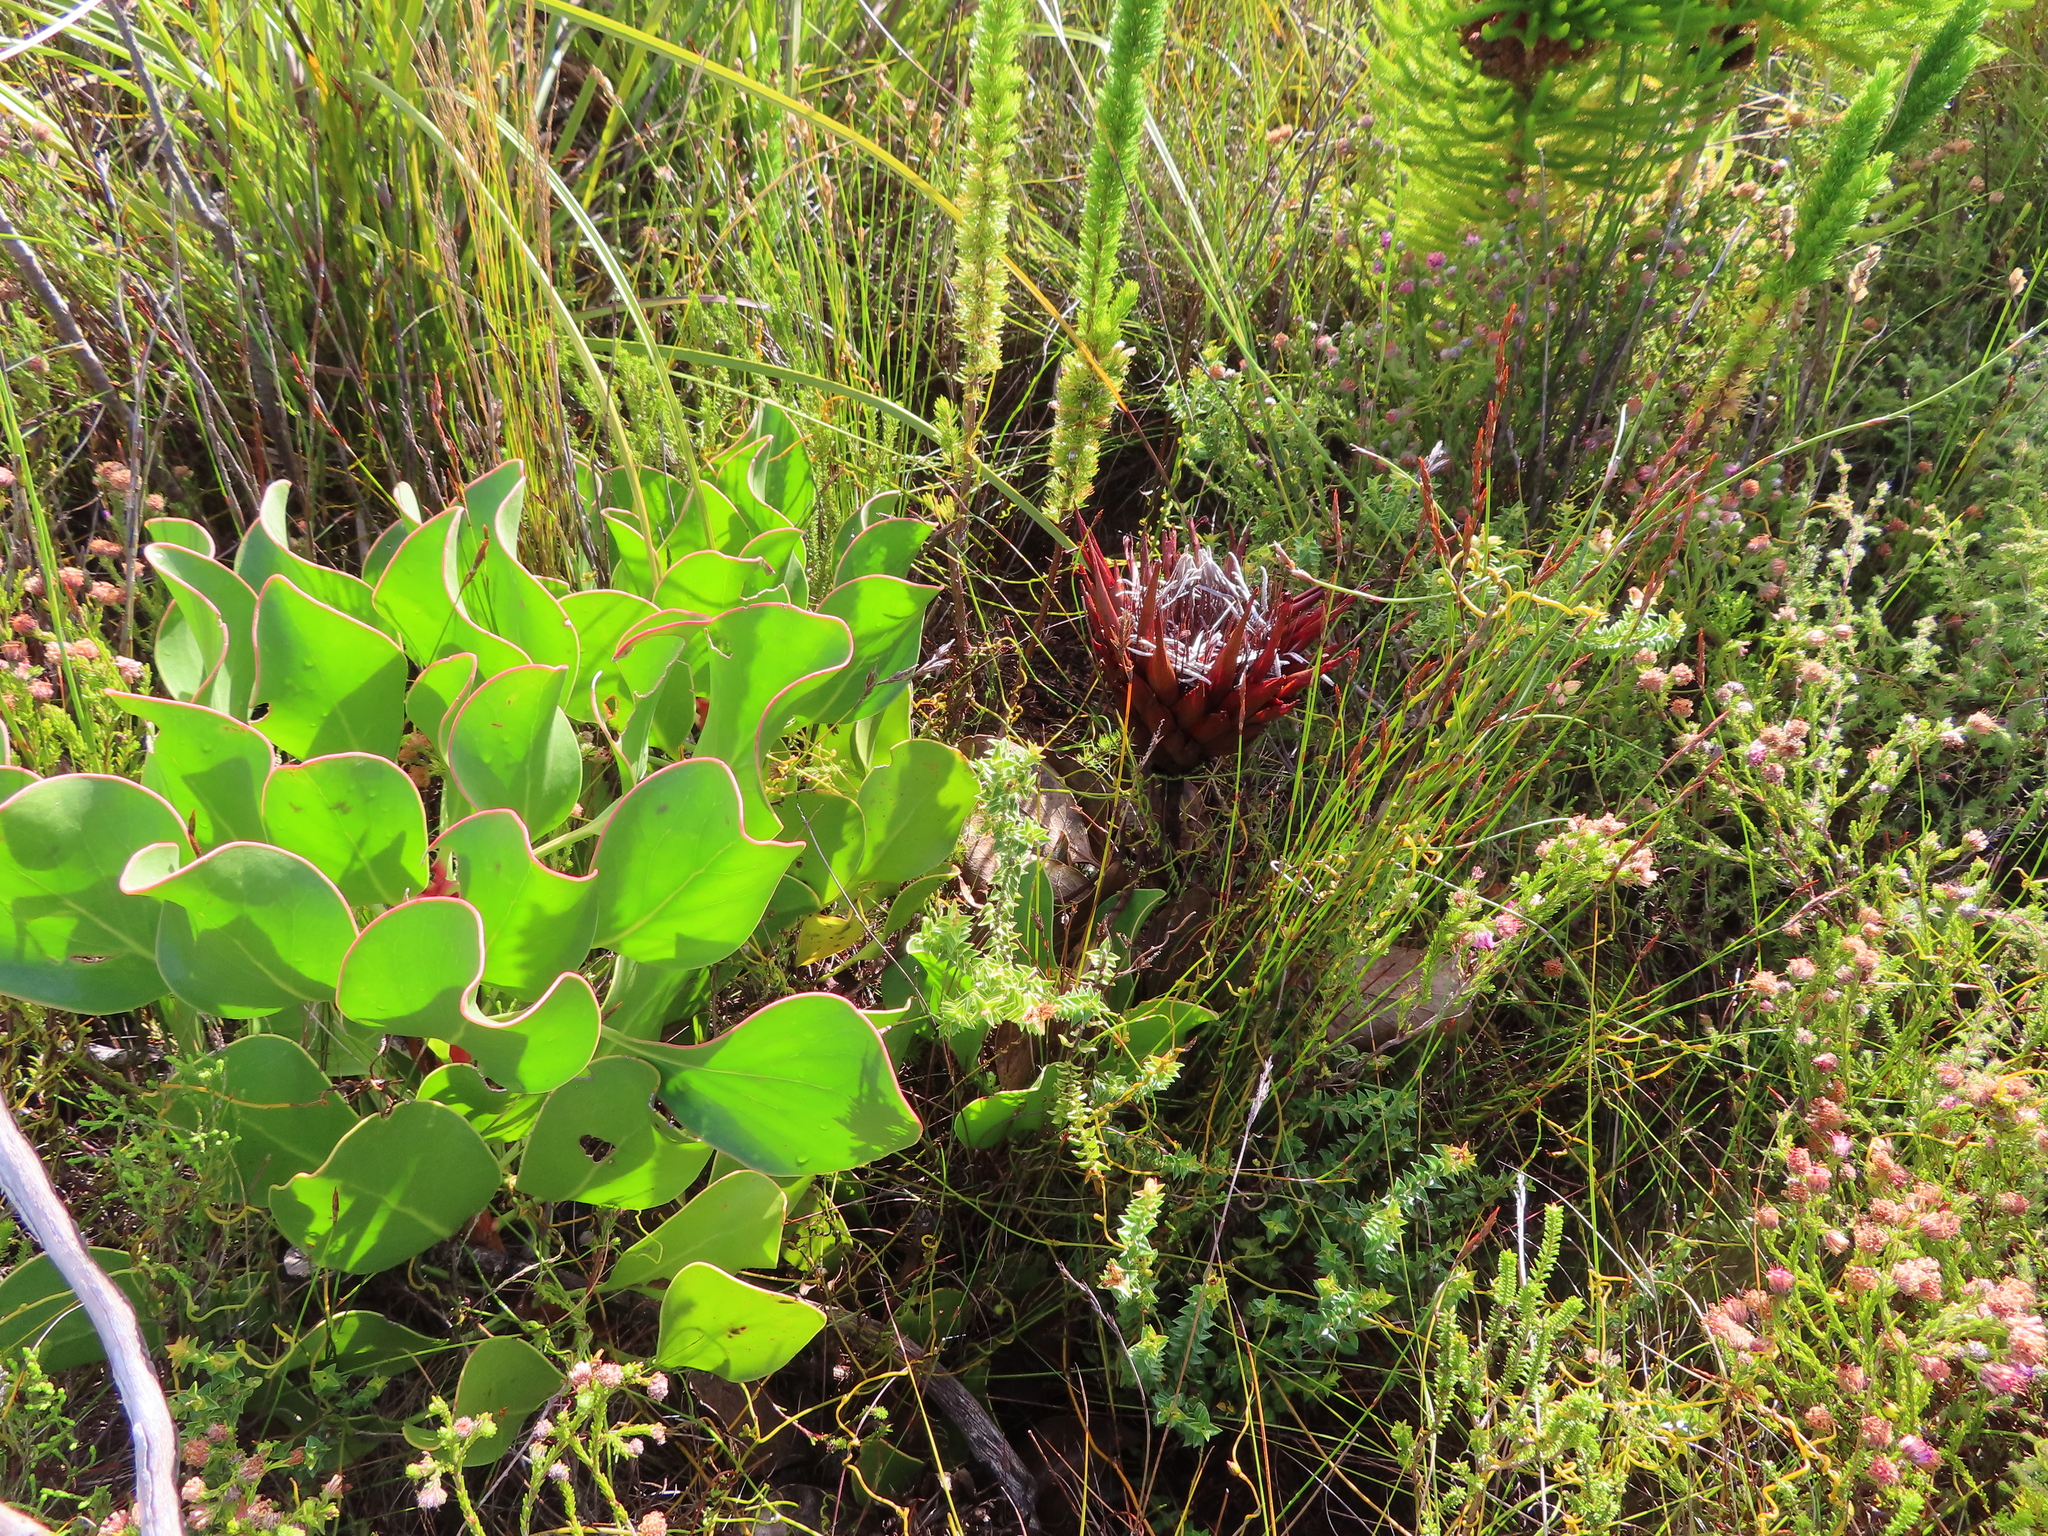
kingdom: Plantae
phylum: Tracheophyta
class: Magnoliopsida
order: Proteales
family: Proteaceae
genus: Protea
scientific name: Protea cynaroides
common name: King protea
